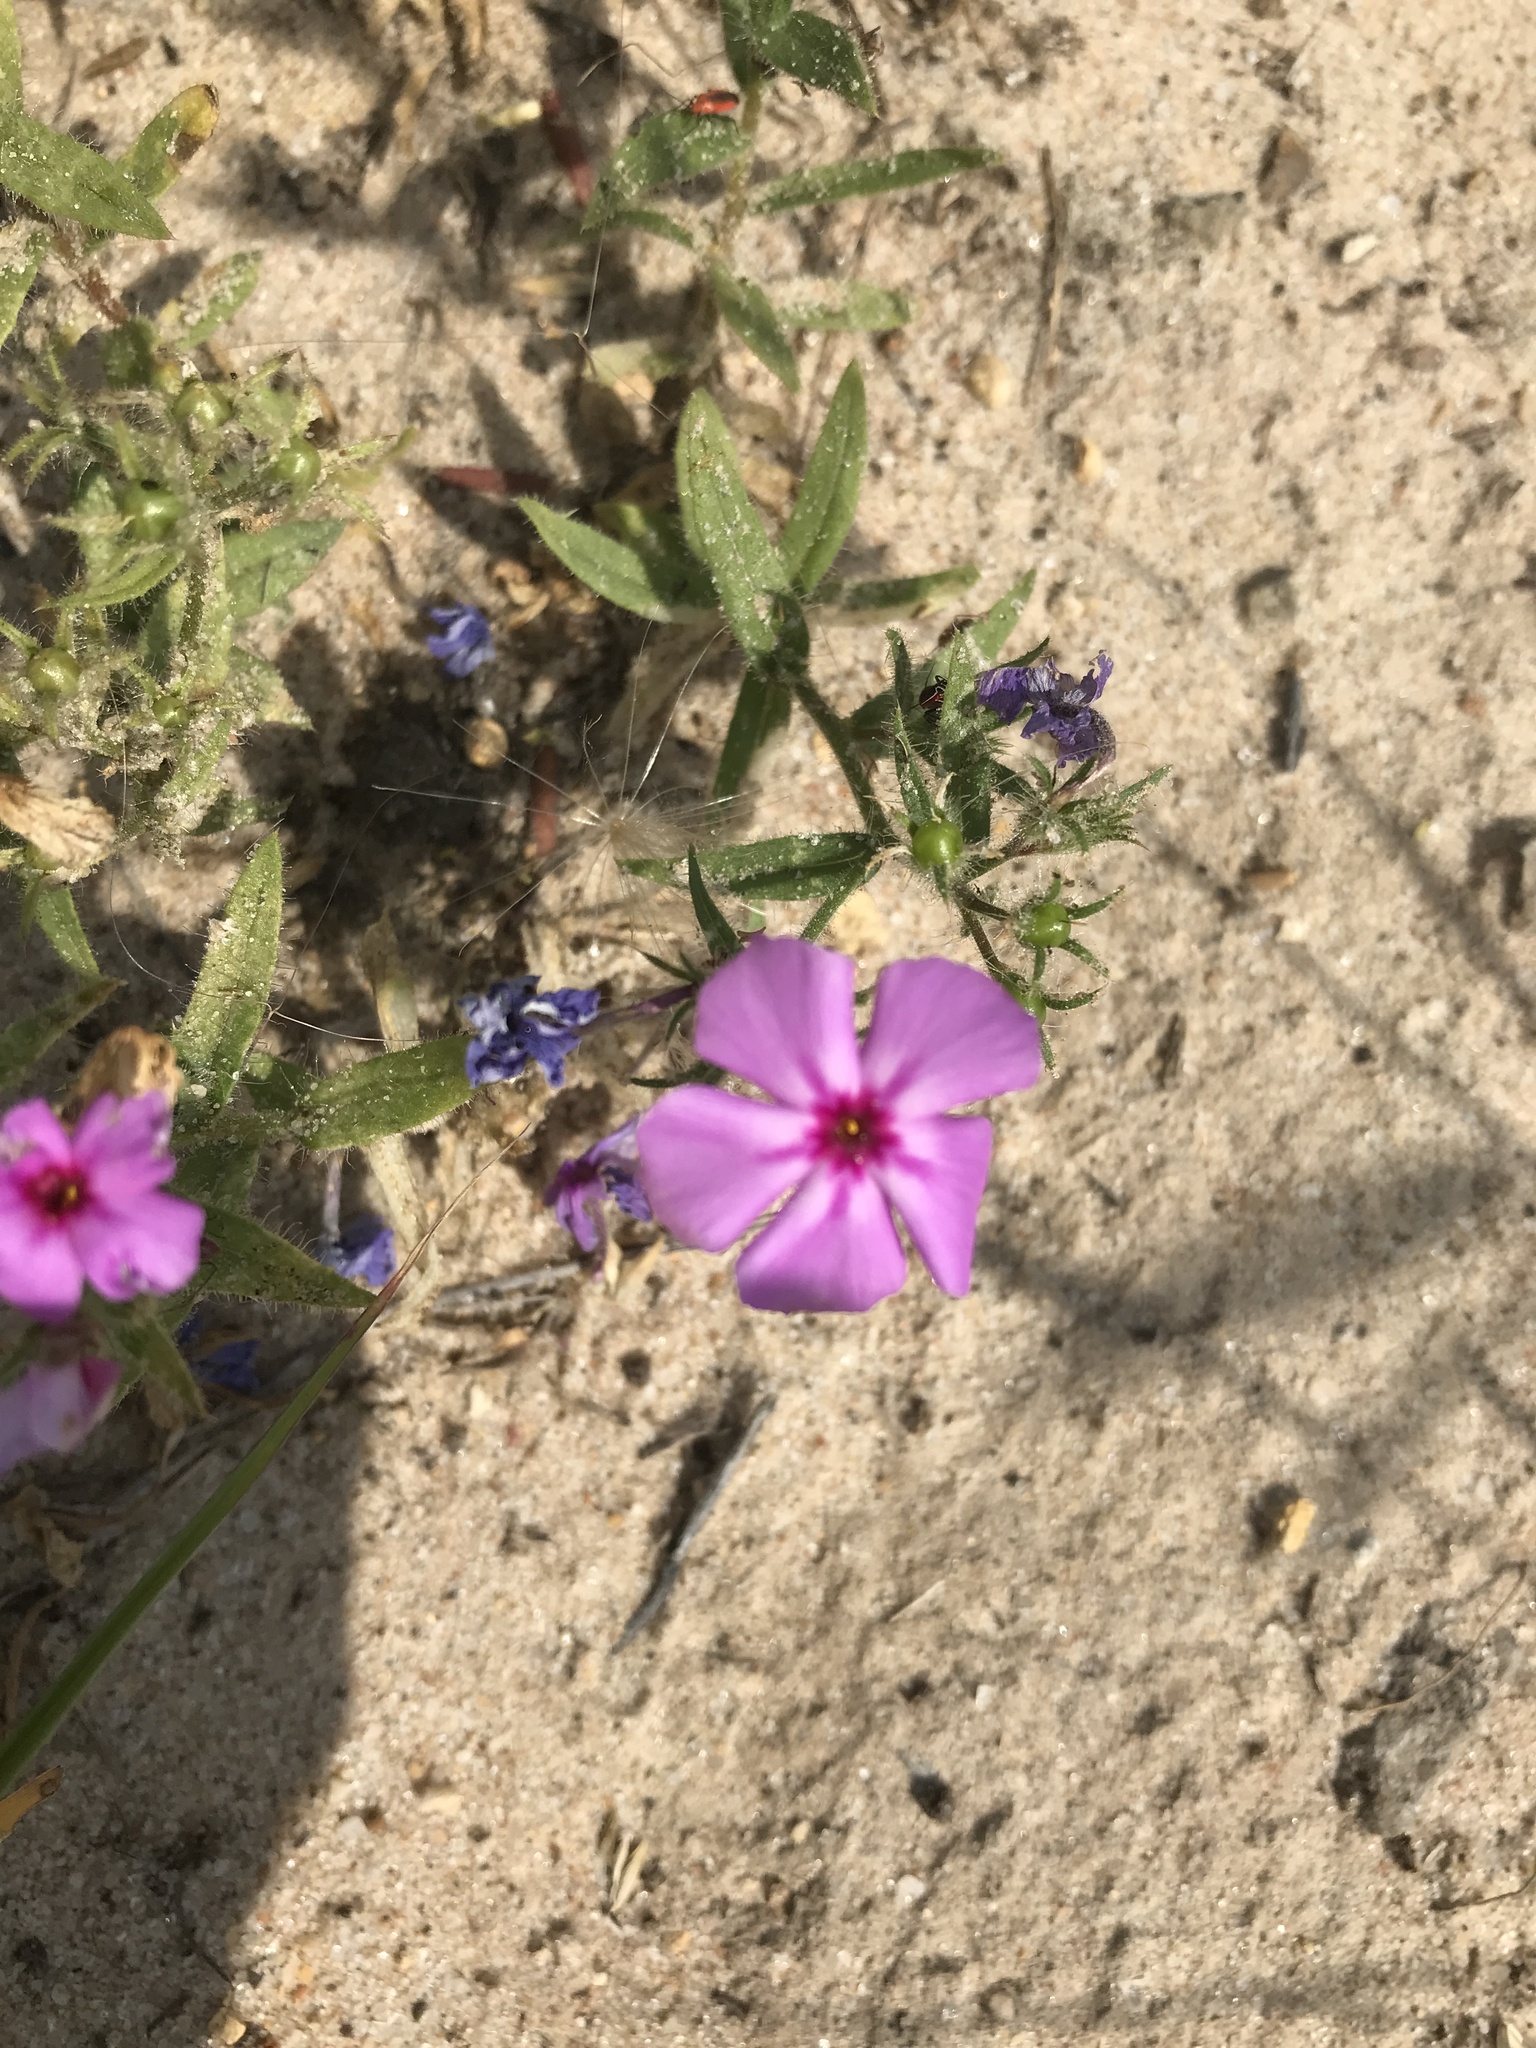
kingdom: Plantae
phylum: Tracheophyta
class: Magnoliopsida
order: Ericales
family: Polemoniaceae
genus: Phlox
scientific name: Phlox drummondii
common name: Drummond's phlox
